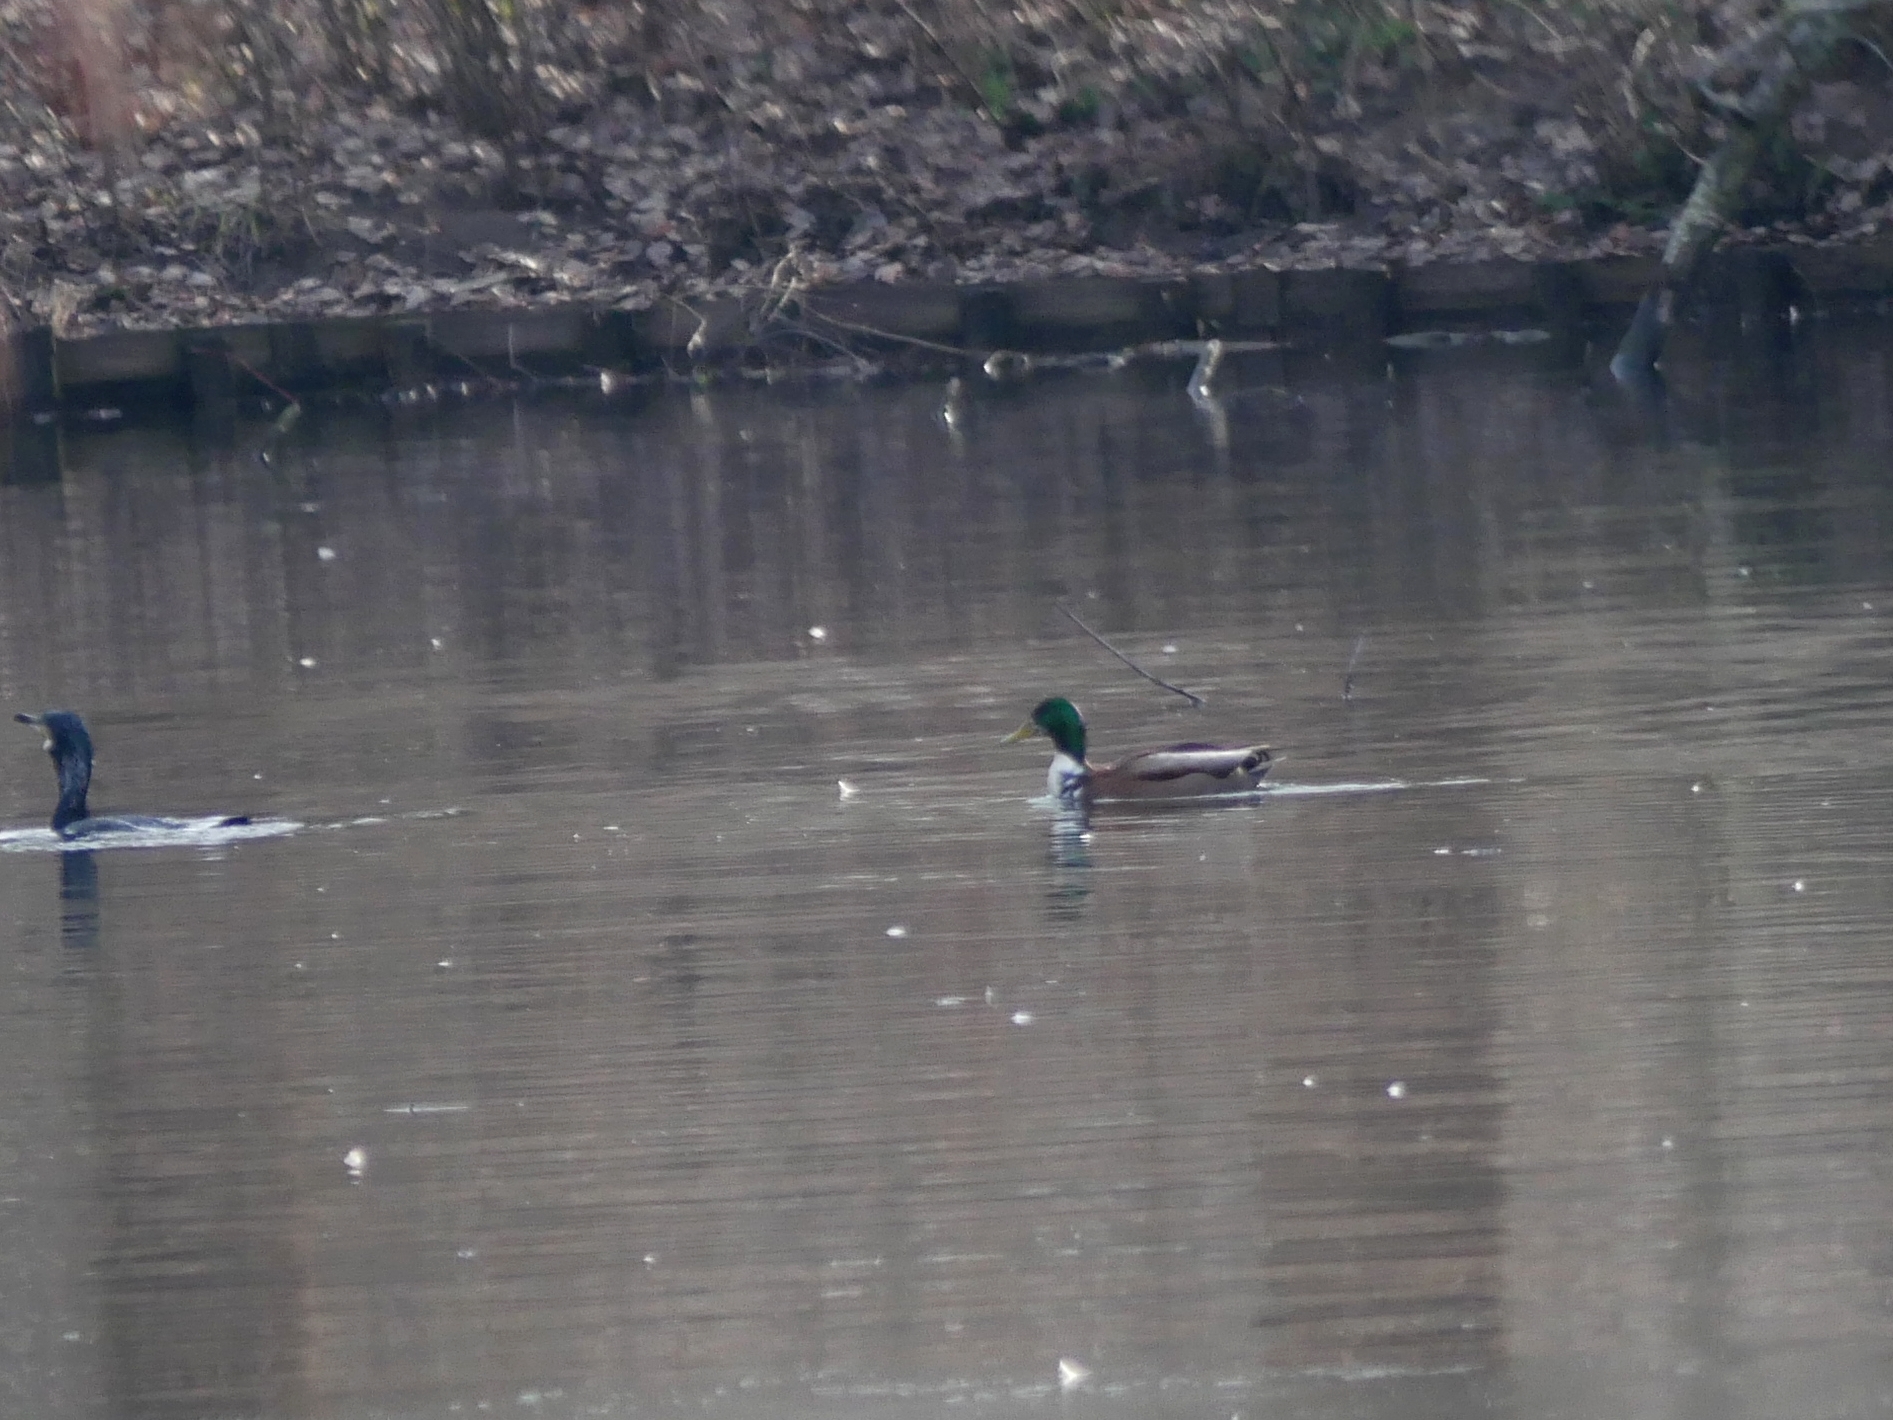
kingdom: Animalia
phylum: Chordata
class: Aves
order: Anseriformes
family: Anatidae
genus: Anas
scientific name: Anas platyrhynchos
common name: Mallard
